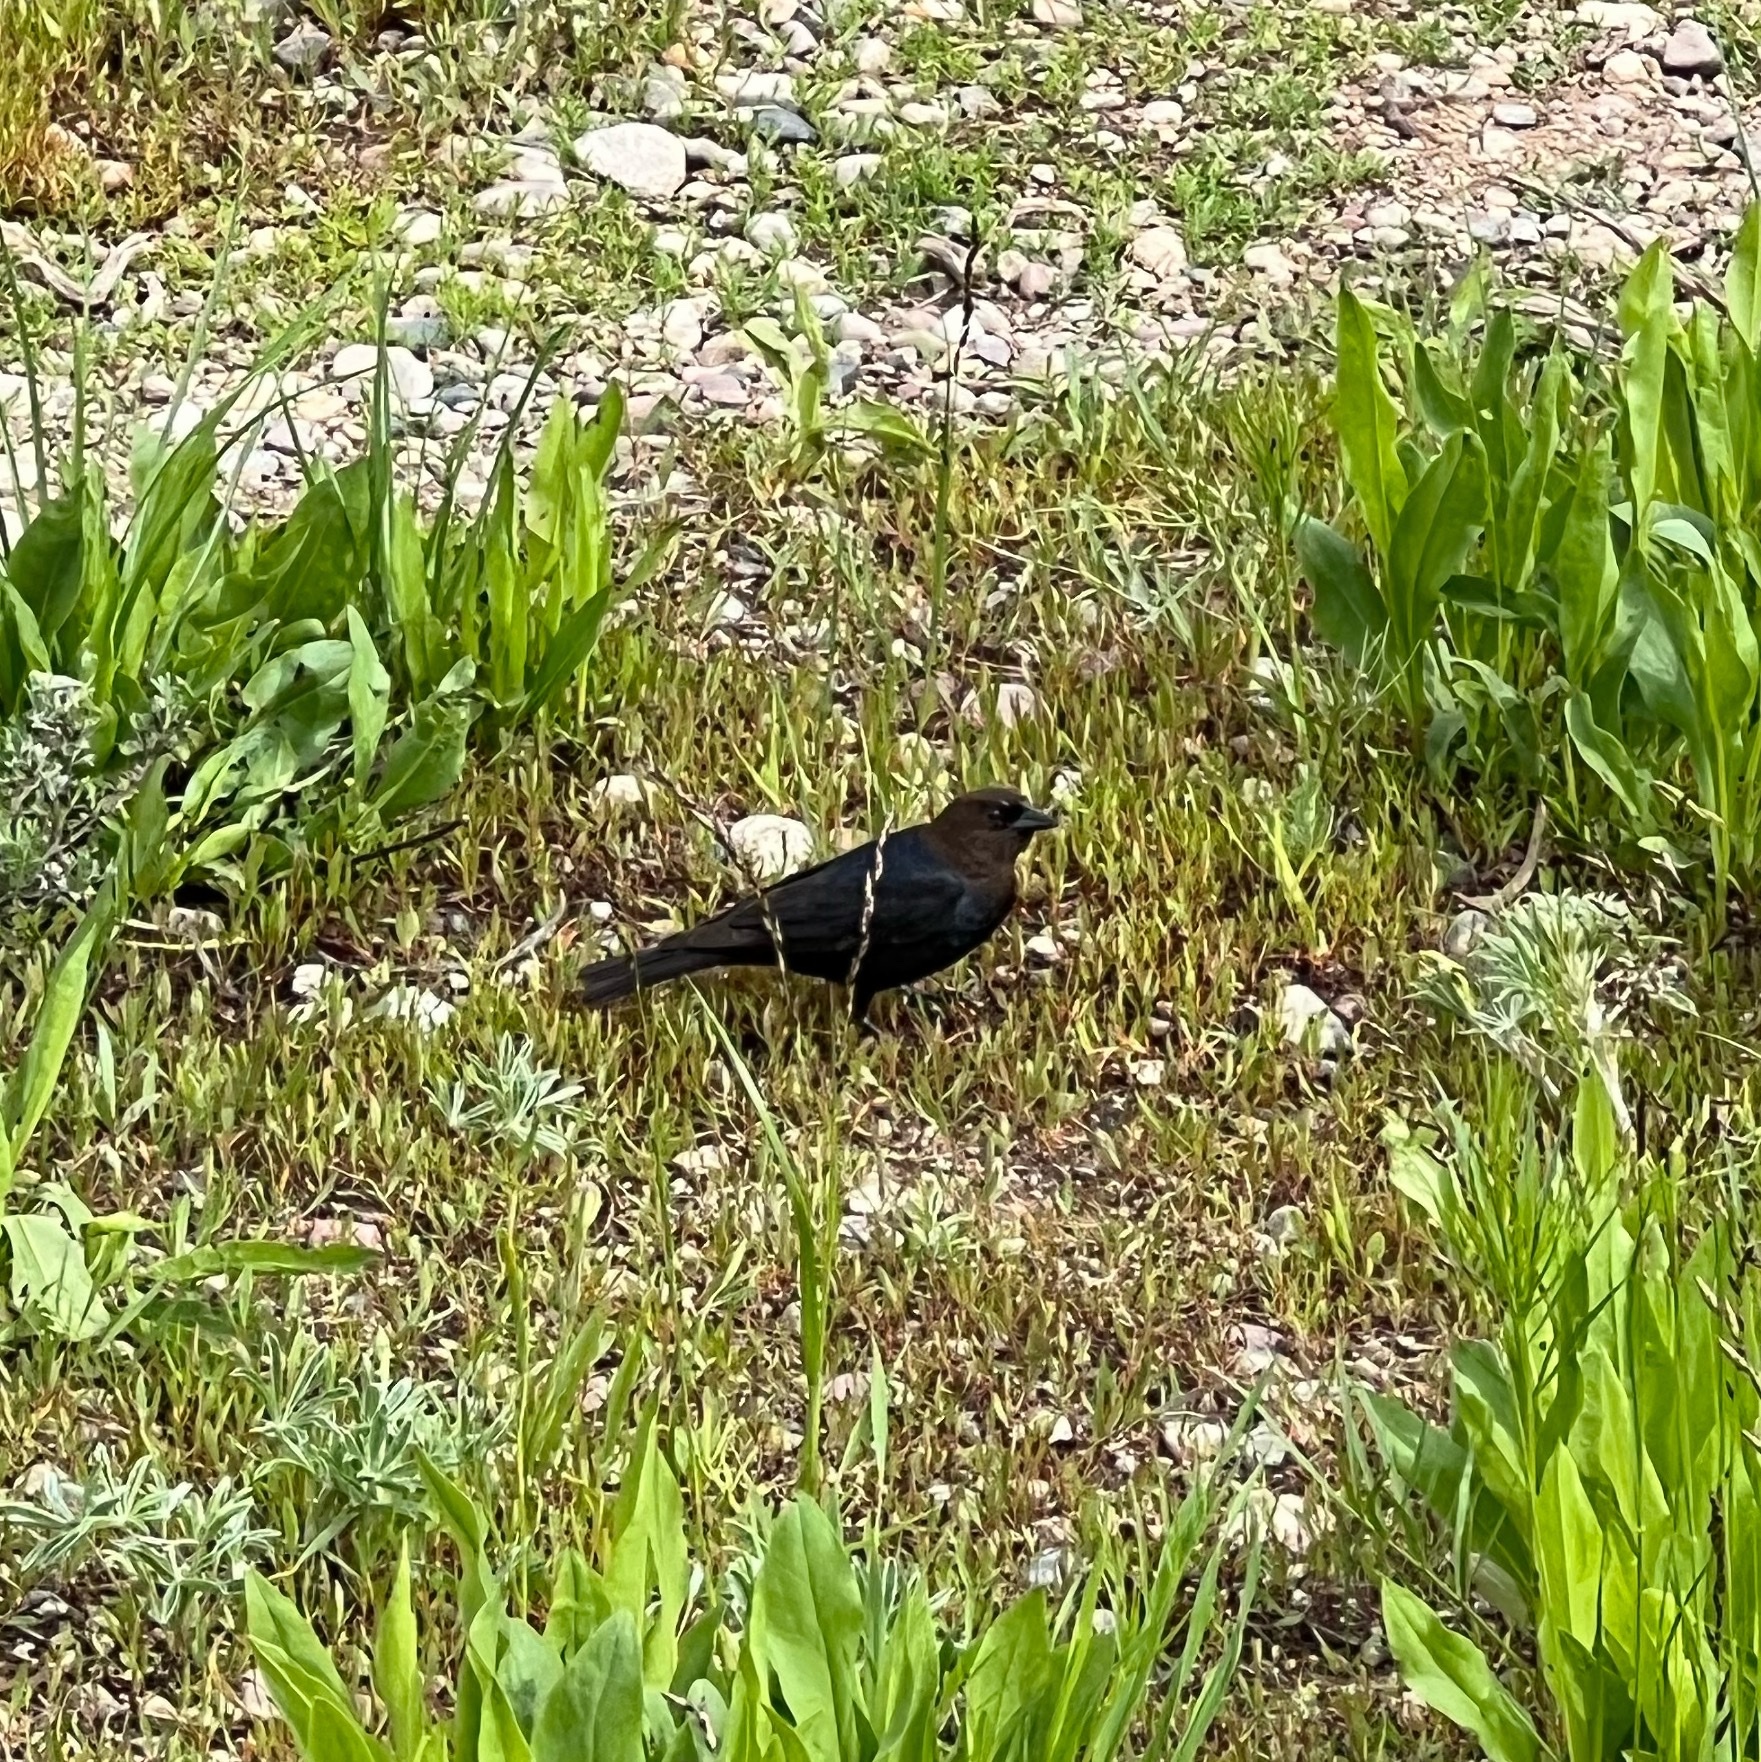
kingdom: Animalia
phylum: Chordata
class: Aves
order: Passeriformes
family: Icteridae
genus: Molothrus
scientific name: Molothrus ater
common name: Brown-headed cowbird
